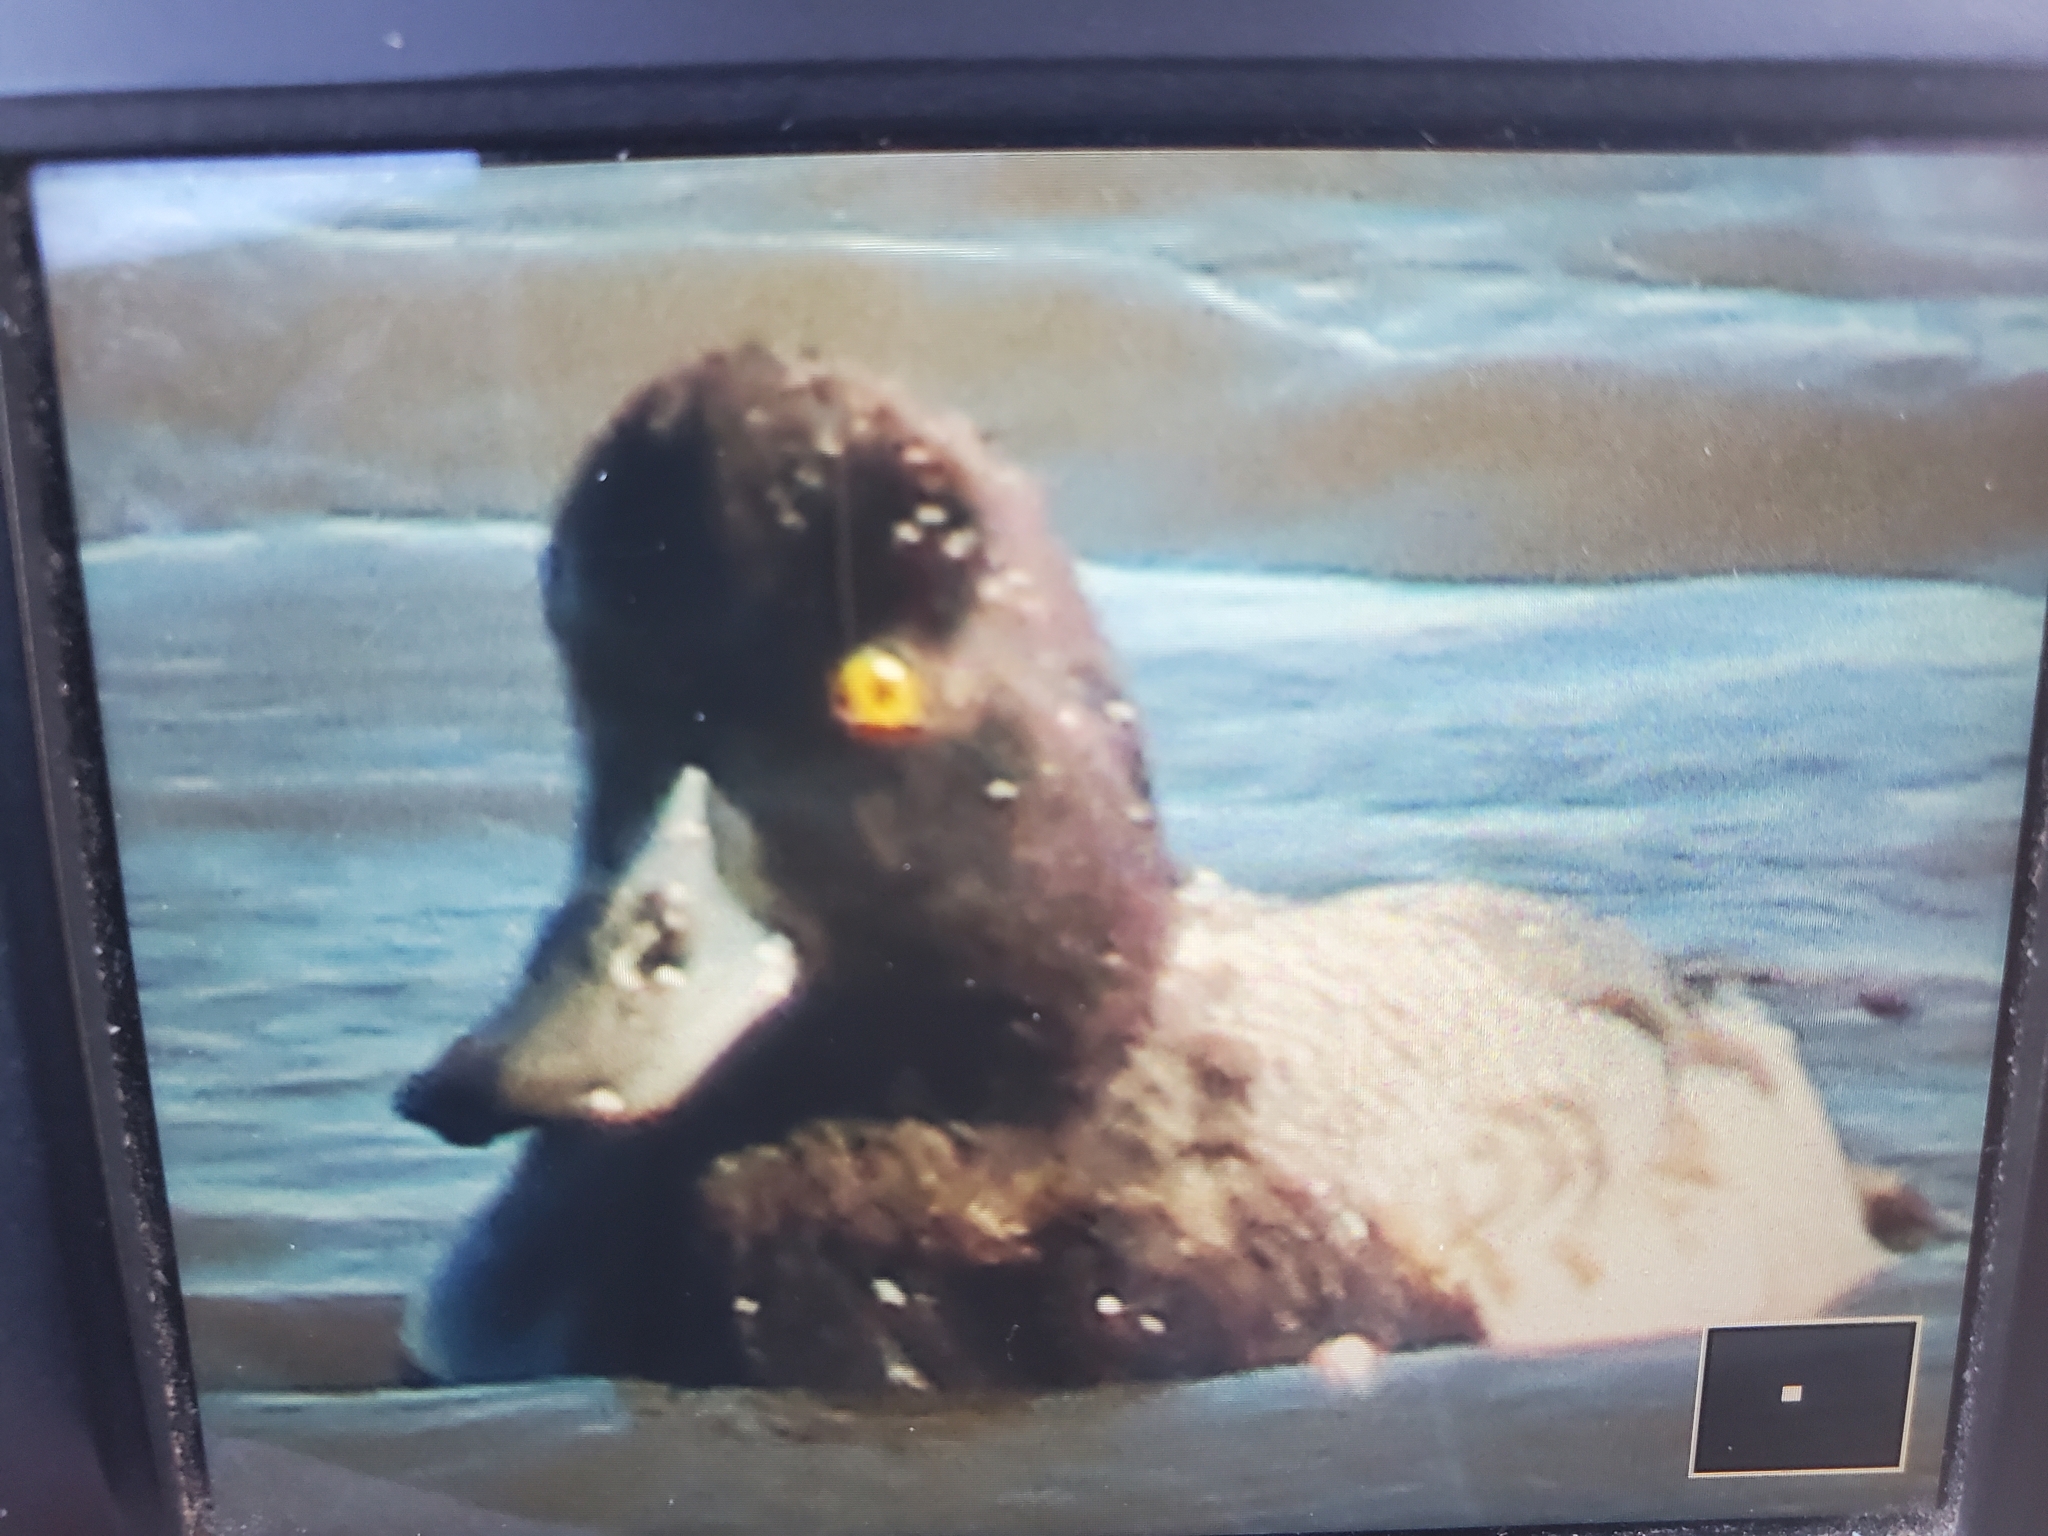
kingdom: Animalia
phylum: Chordata
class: Aves
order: Anseriformes
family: Anatidae
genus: Aythya
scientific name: Aythya affinis
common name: Lesser scaup
